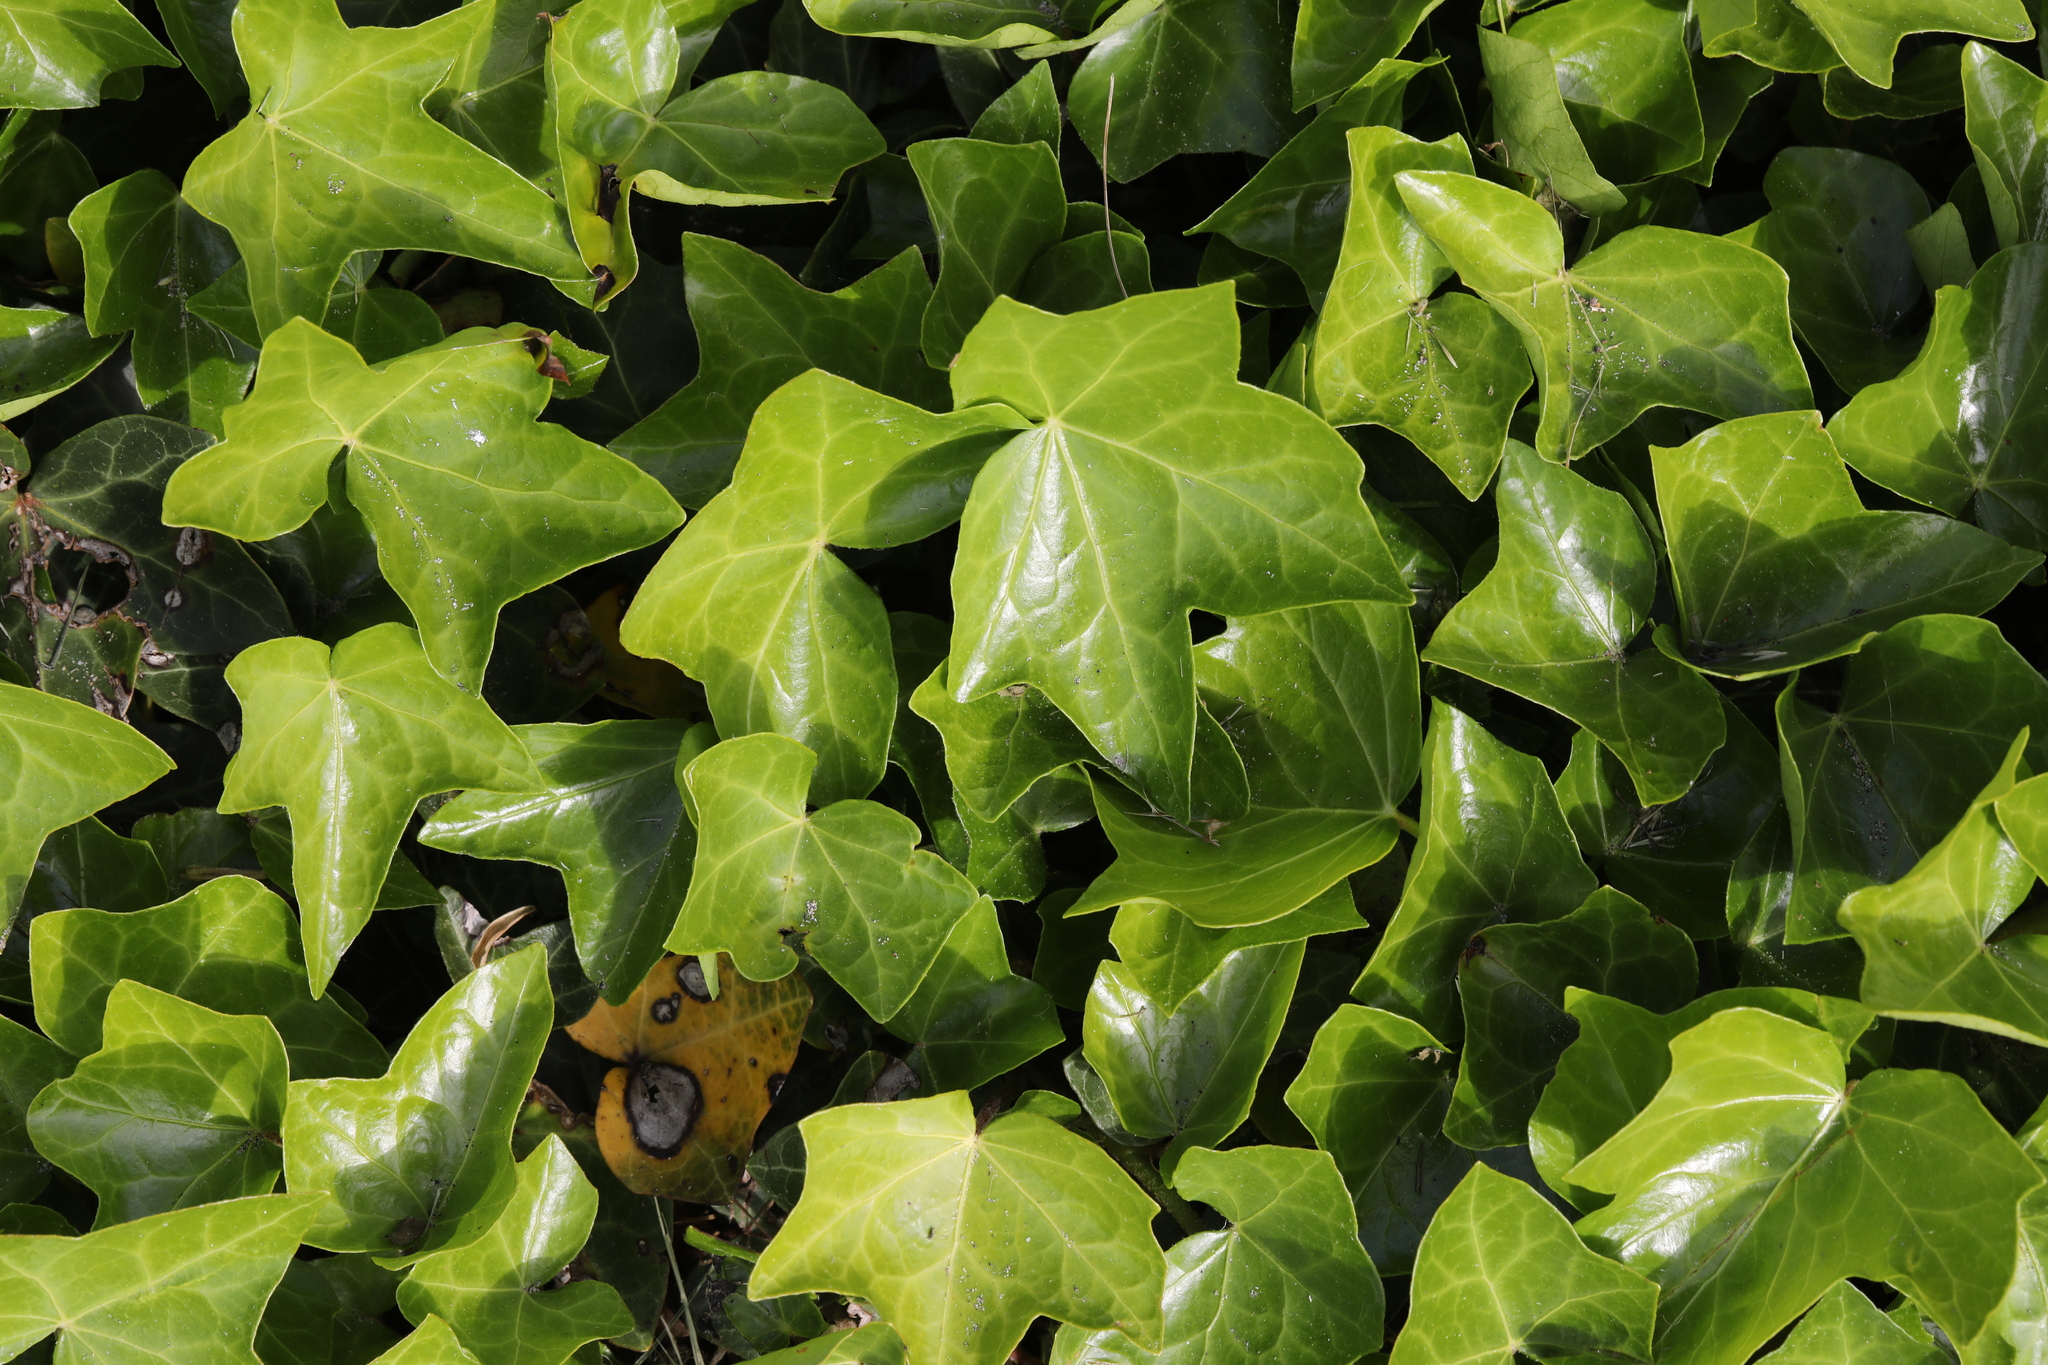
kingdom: Plantae
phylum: Tracheophyta
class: Magnoliopsida
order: Apiales
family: Araliaceae
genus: Hedera
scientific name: Hedera helix
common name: Ivy
